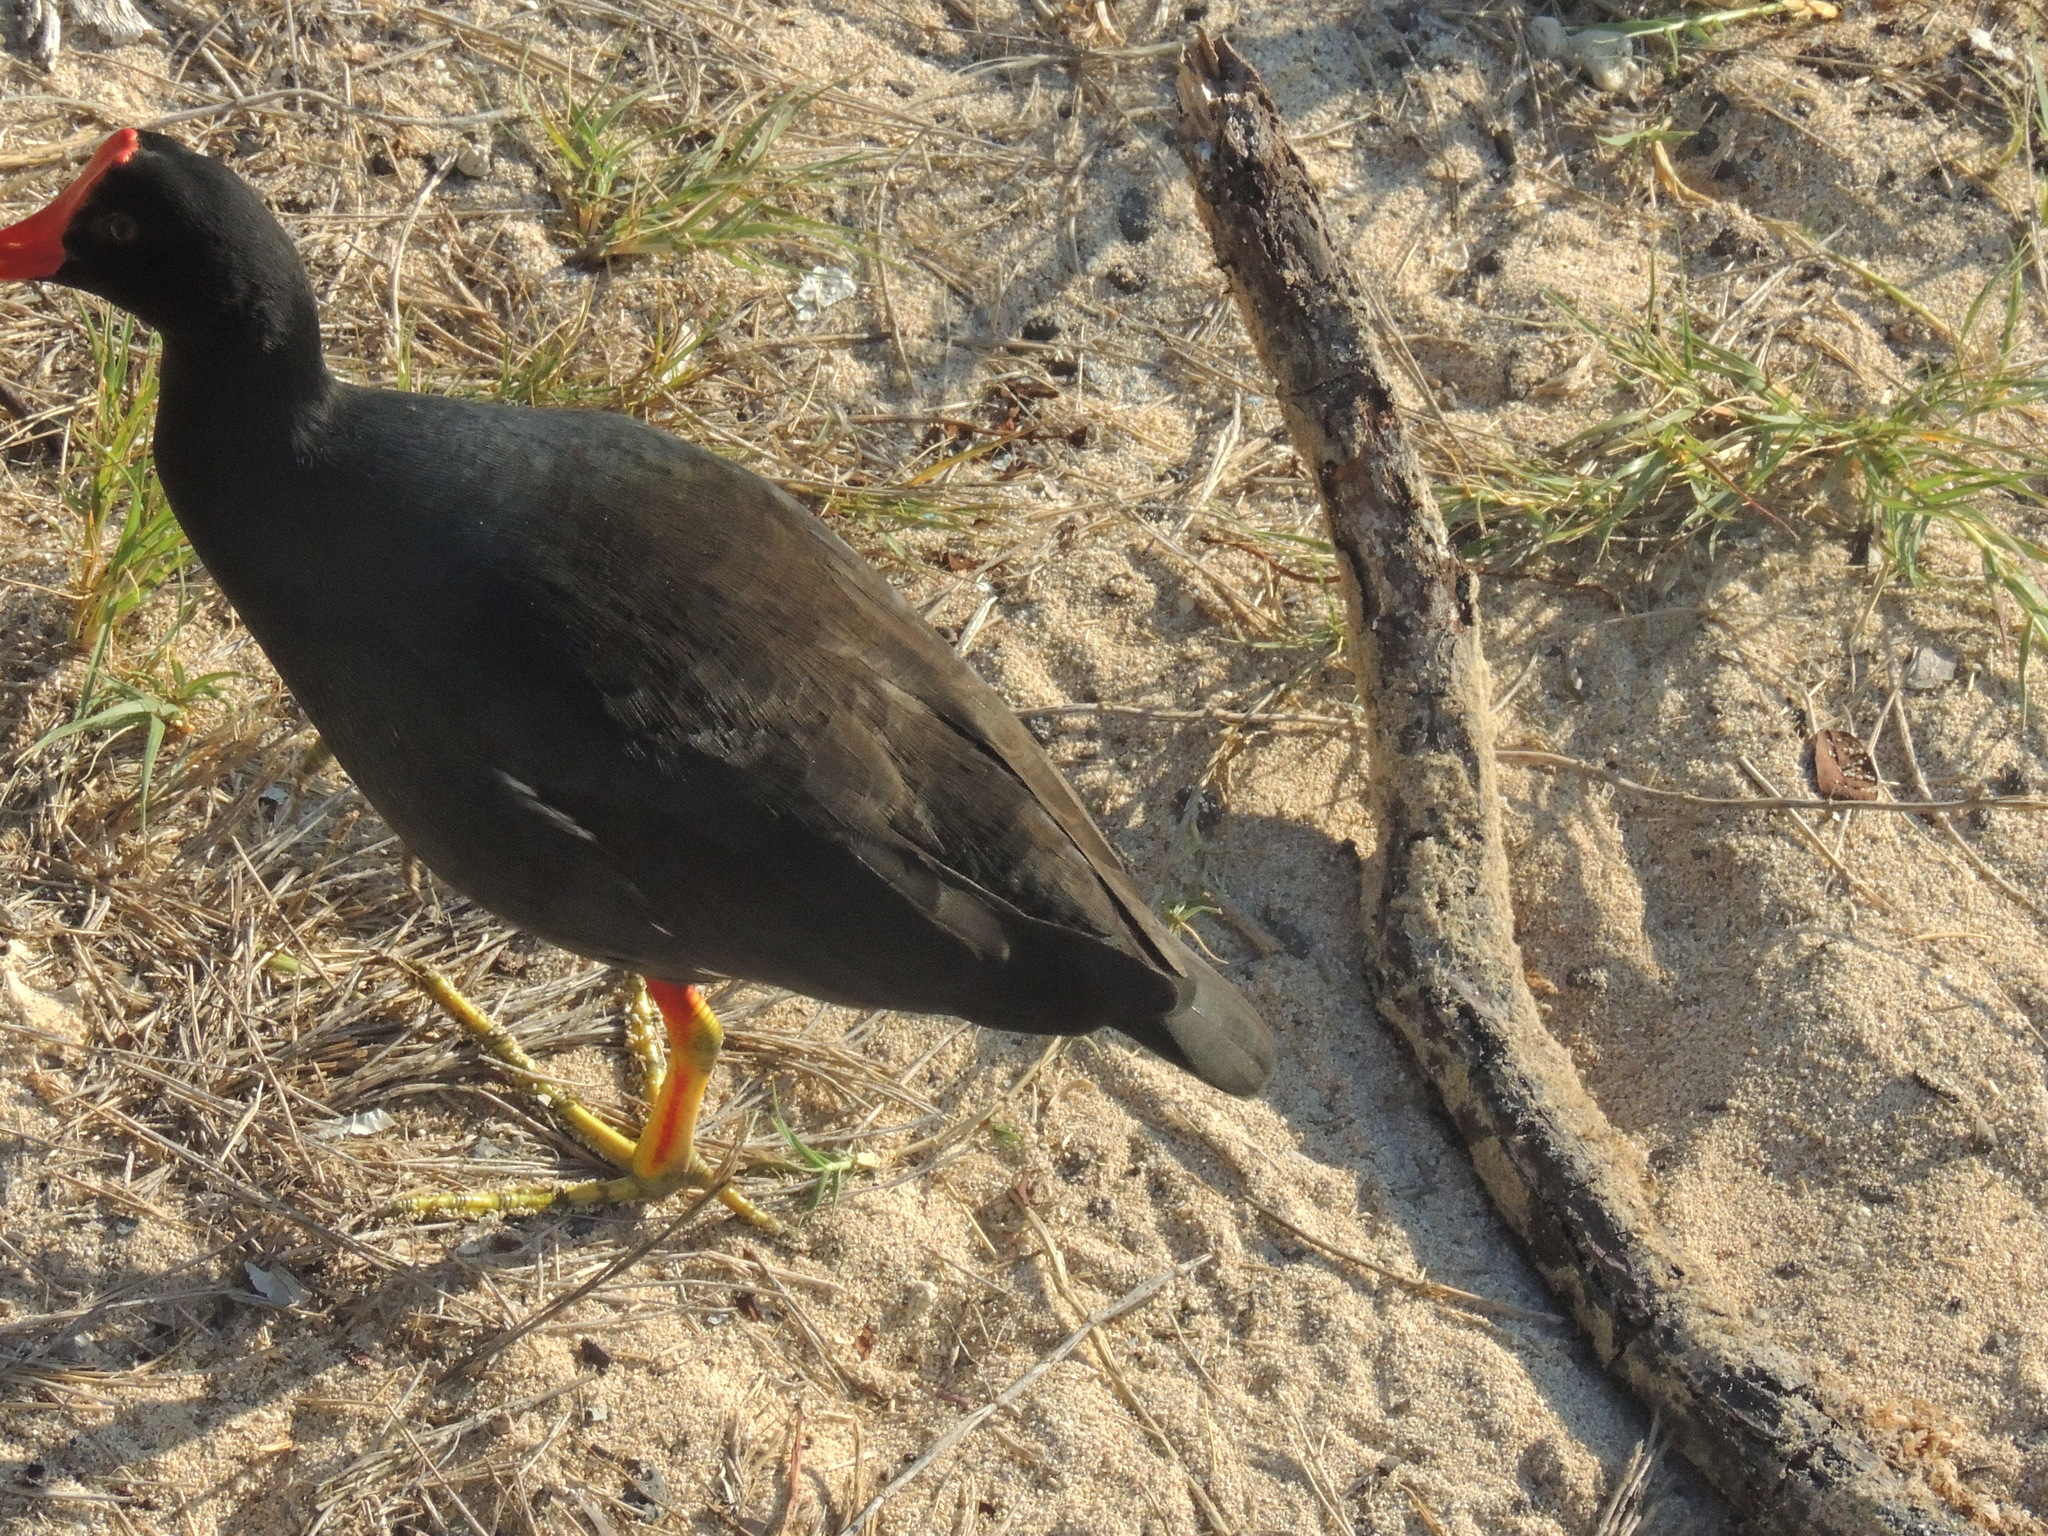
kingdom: Animalia
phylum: Chordata
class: Aves
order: Gruiformes
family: Rallidae
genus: Gallinula
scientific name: Gallinula chloropus
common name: Common moorhen
